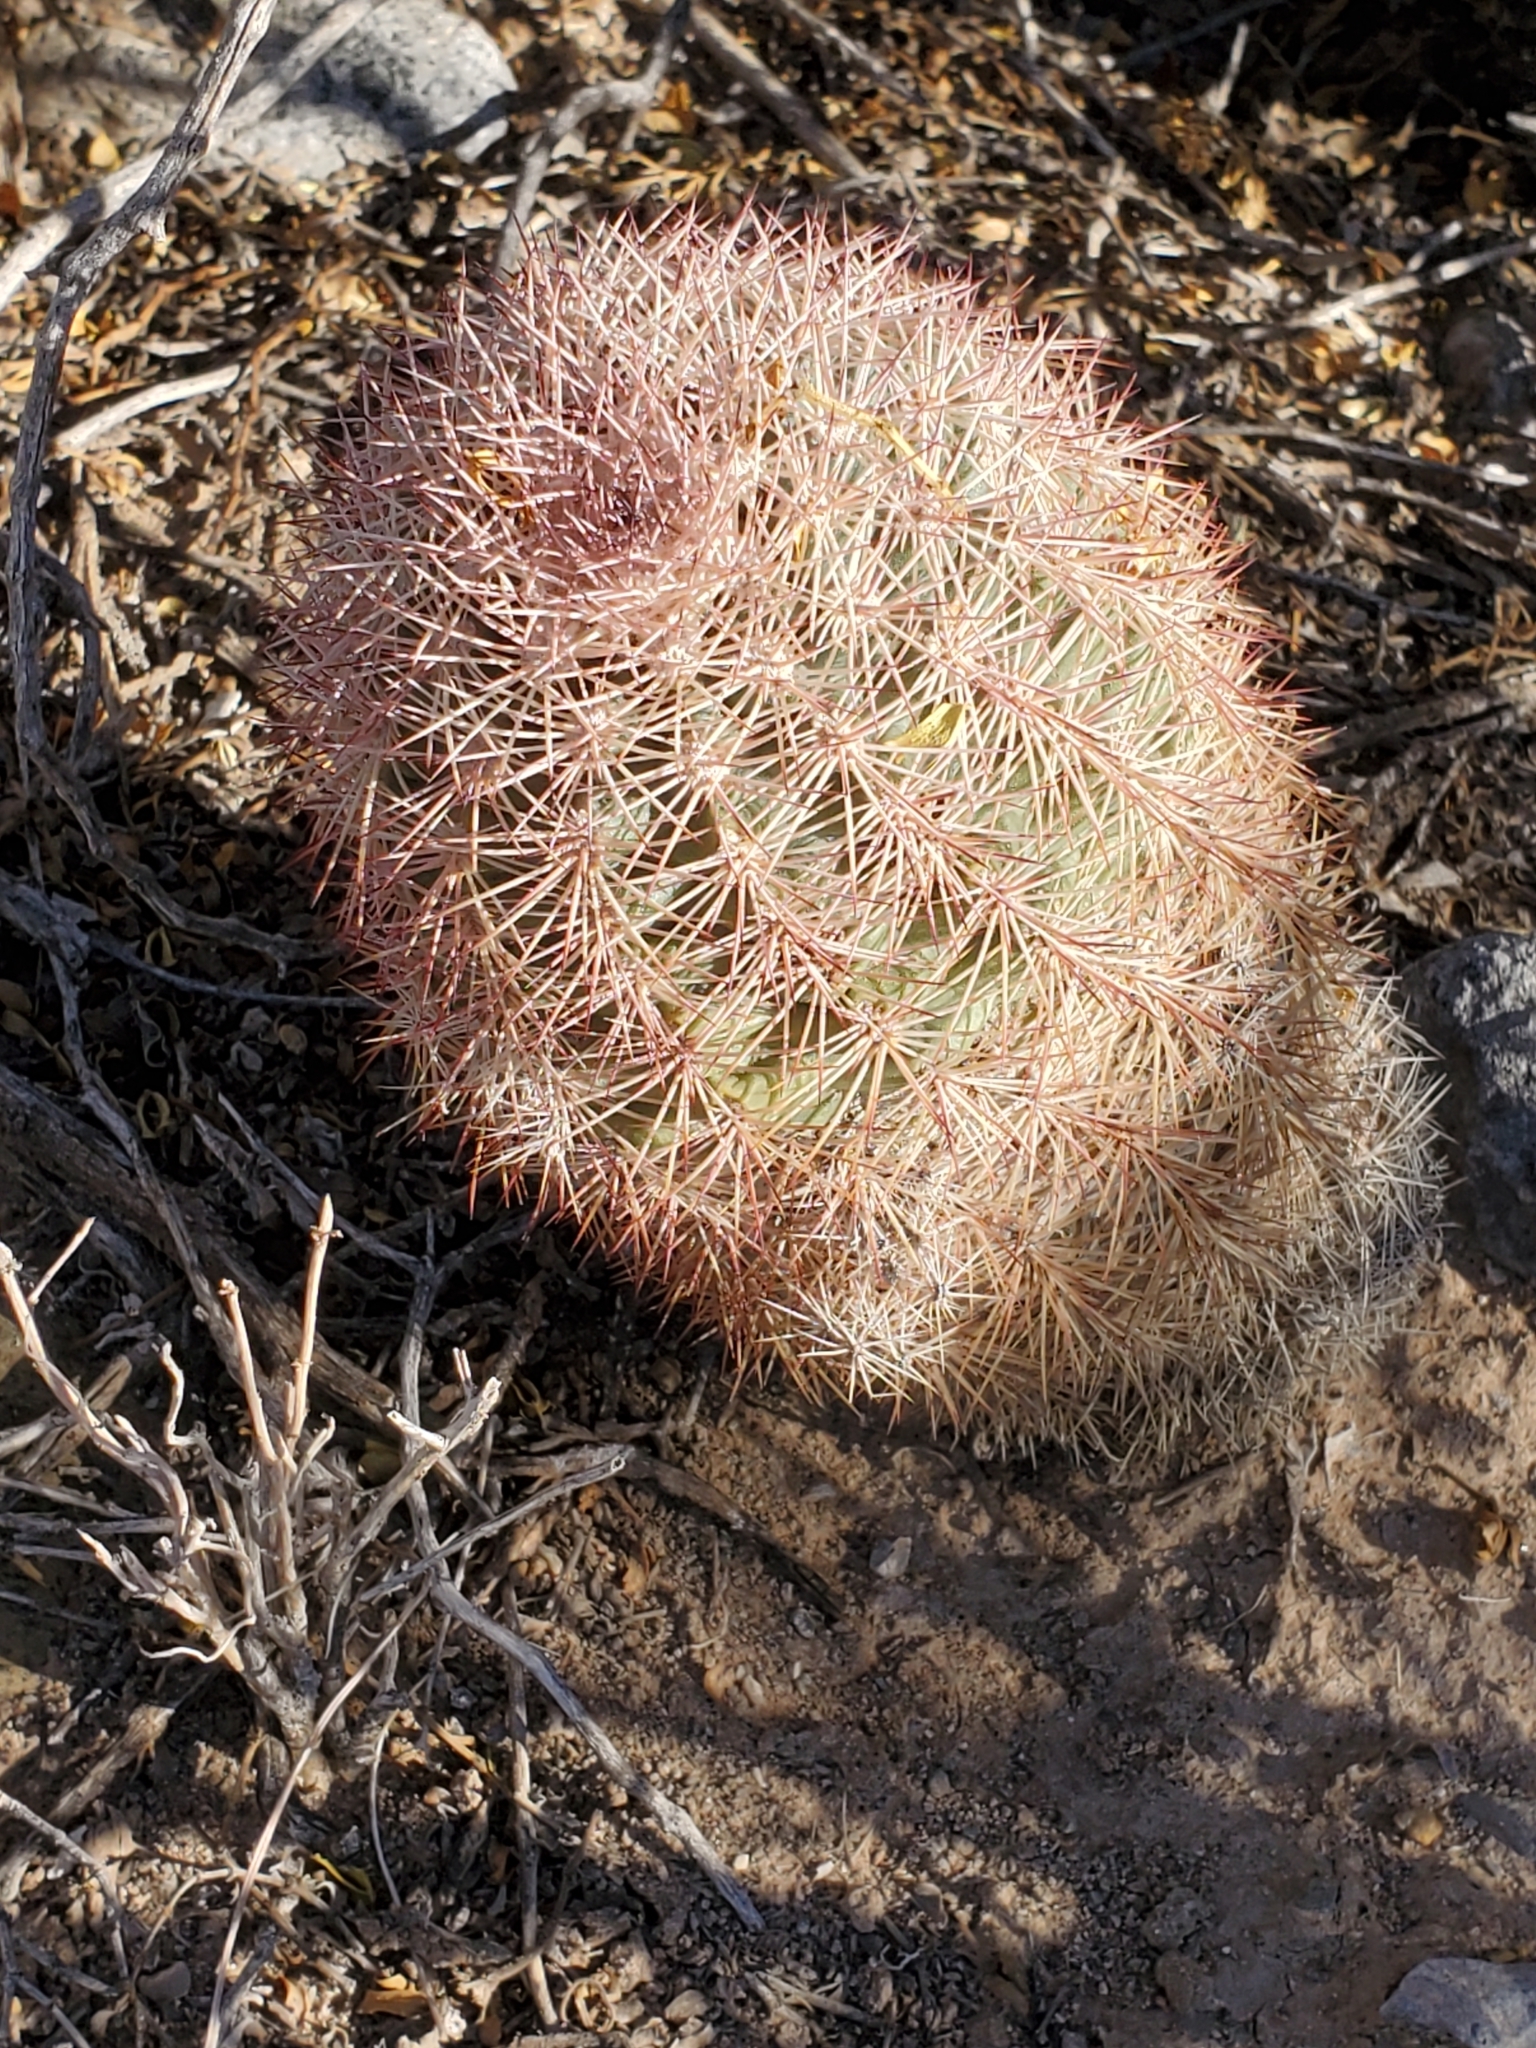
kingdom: Plantae
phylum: Tracheophyta
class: Magnoliopsida
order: Caryophyllales
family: Cactaceae
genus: Echinocereus
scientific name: Echinocereus dasyacanthus
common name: Spiny hedgehog cactus
